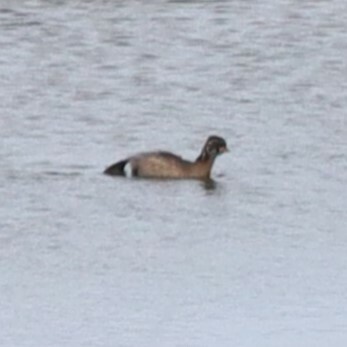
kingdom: Animalia
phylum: Chordata
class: Aves
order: Podicipediformes
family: Podicipedidae
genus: Tachybaptus
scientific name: Tachybaptus ruficollis
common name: Little grebe
